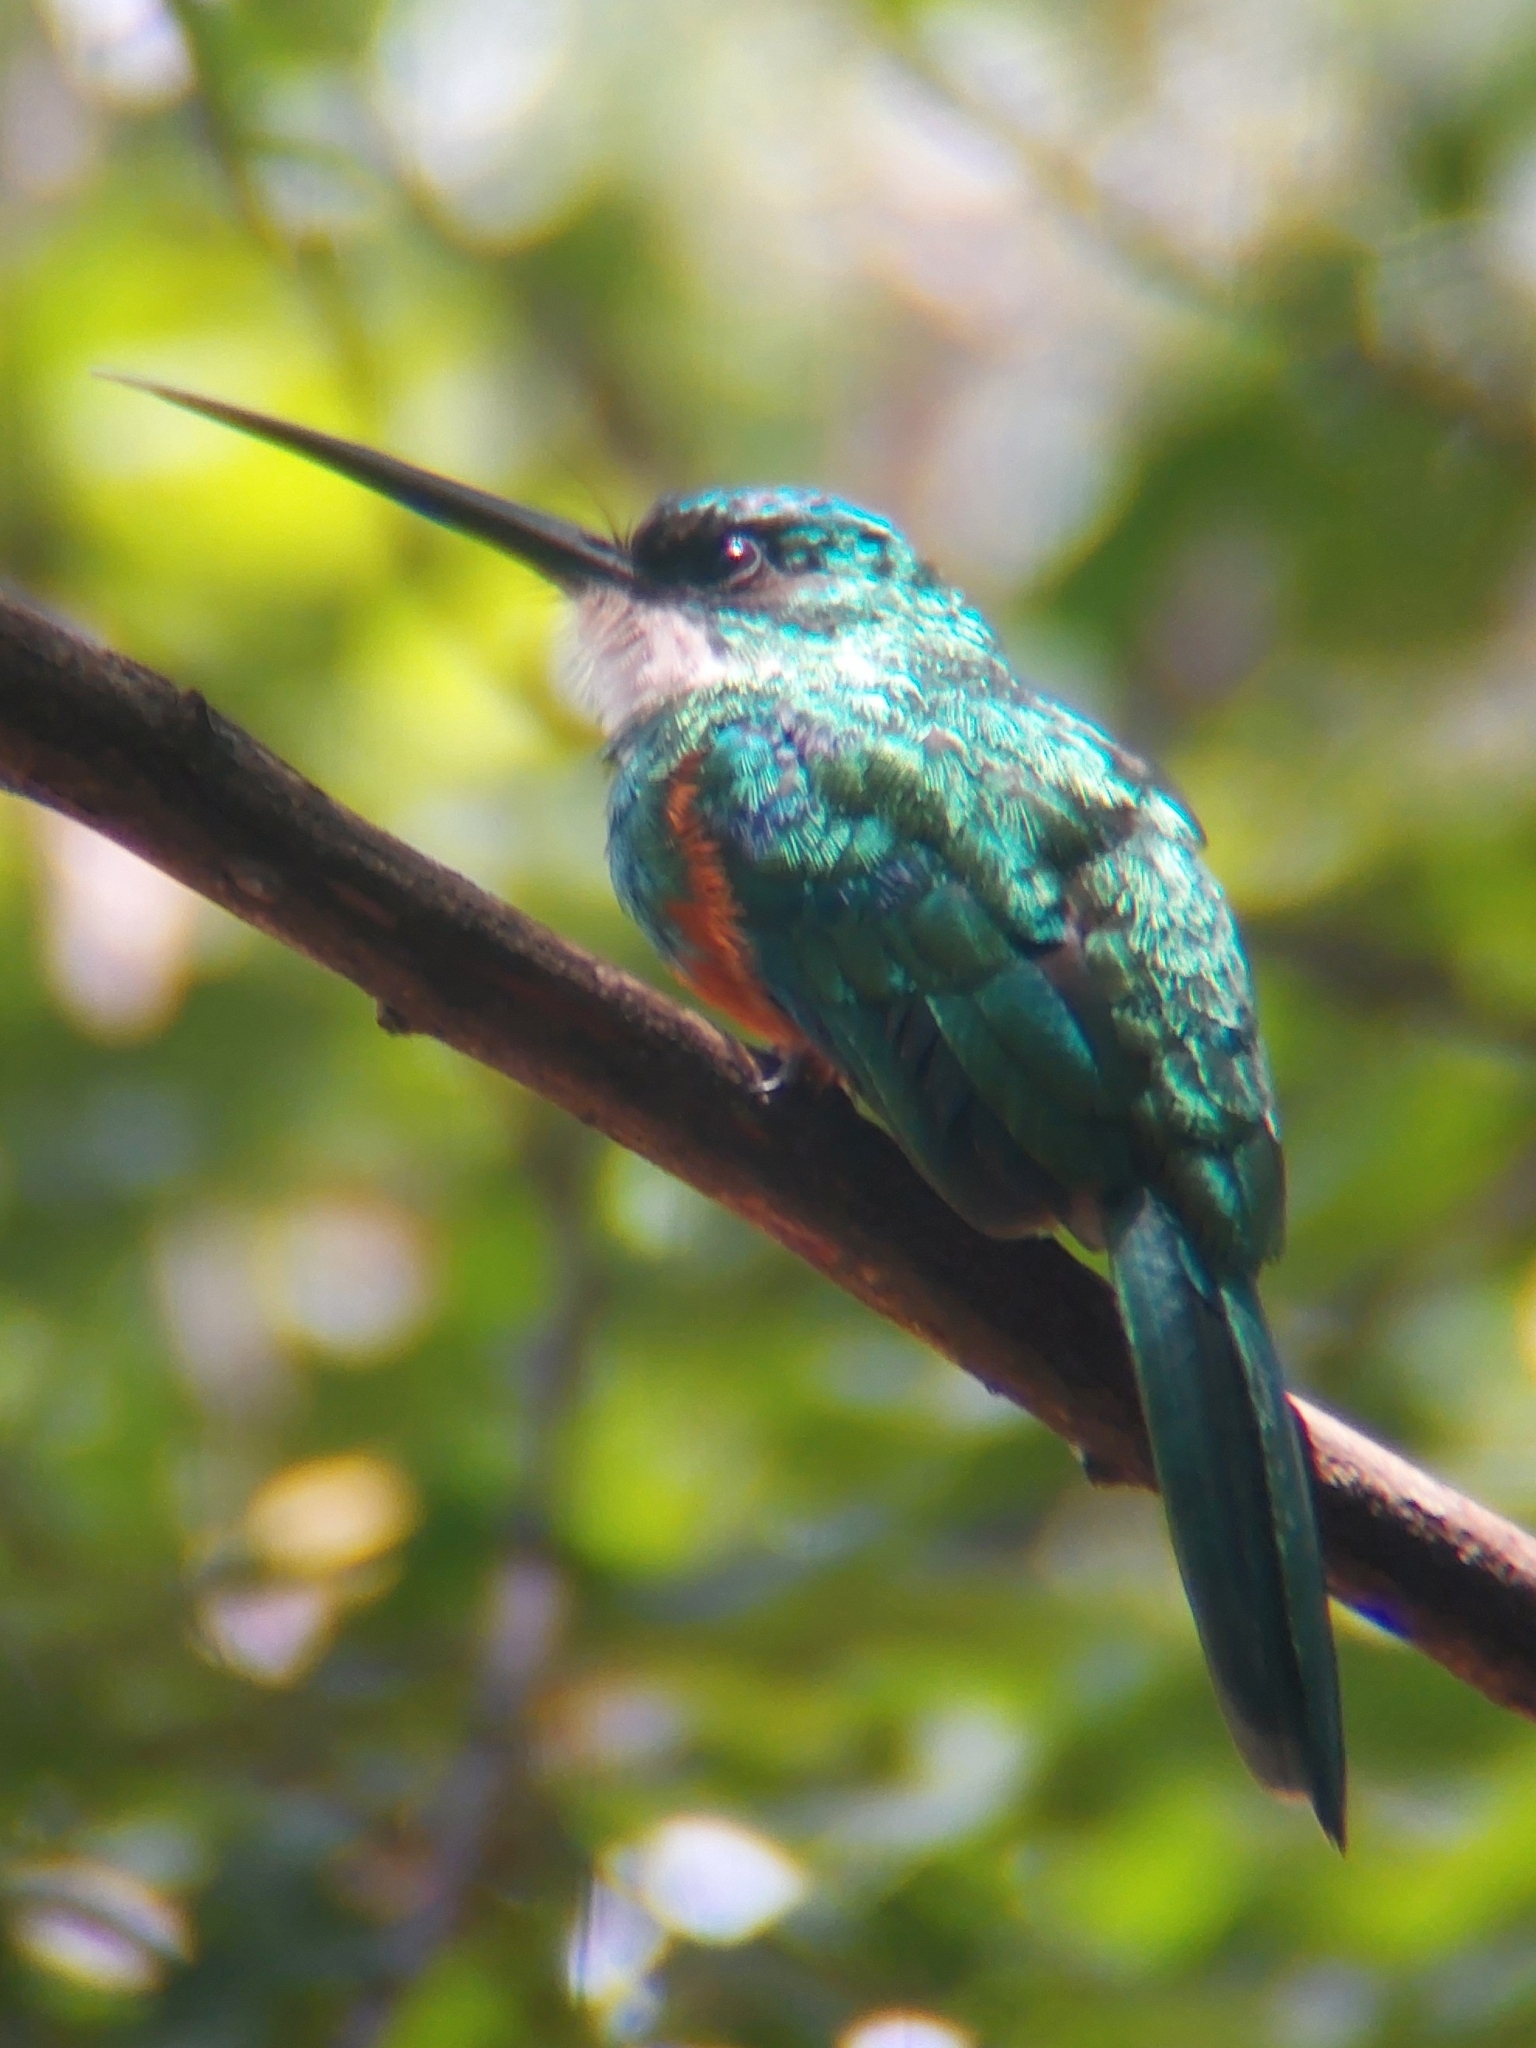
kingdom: Animalia
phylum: Chordata
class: Aves
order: Piciformes
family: Galbulidae
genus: Galbula
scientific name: Galbula ruficauda
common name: Rufous-tailed jacamar
